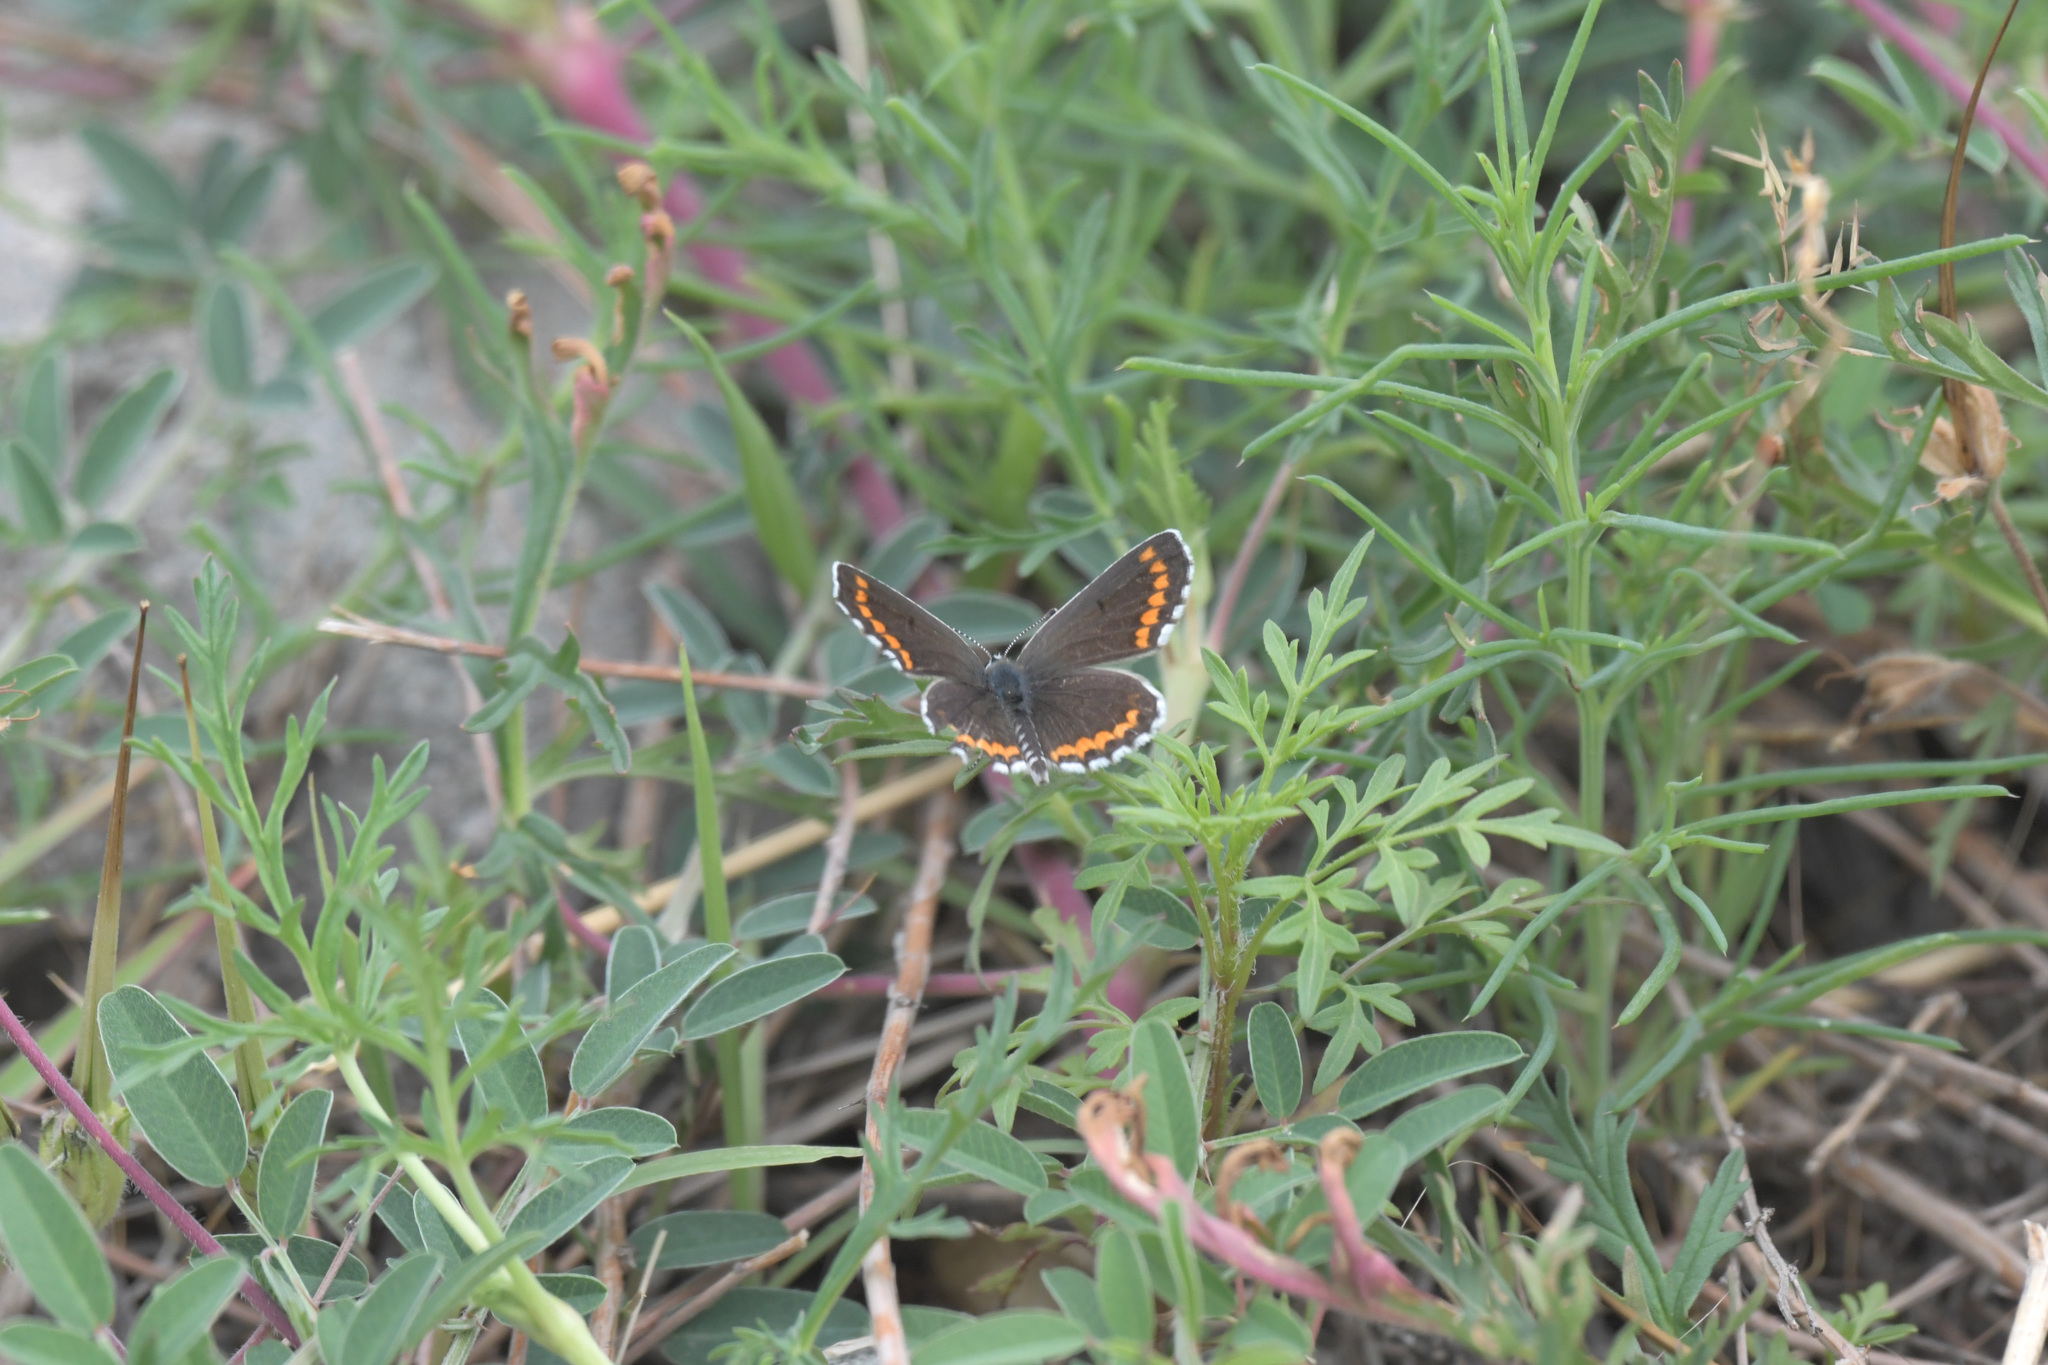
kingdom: Animalia
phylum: Arthropoda
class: Insecta
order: Lepidoptera
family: Lycaenidae
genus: Aricia
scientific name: Aricia chinensis
